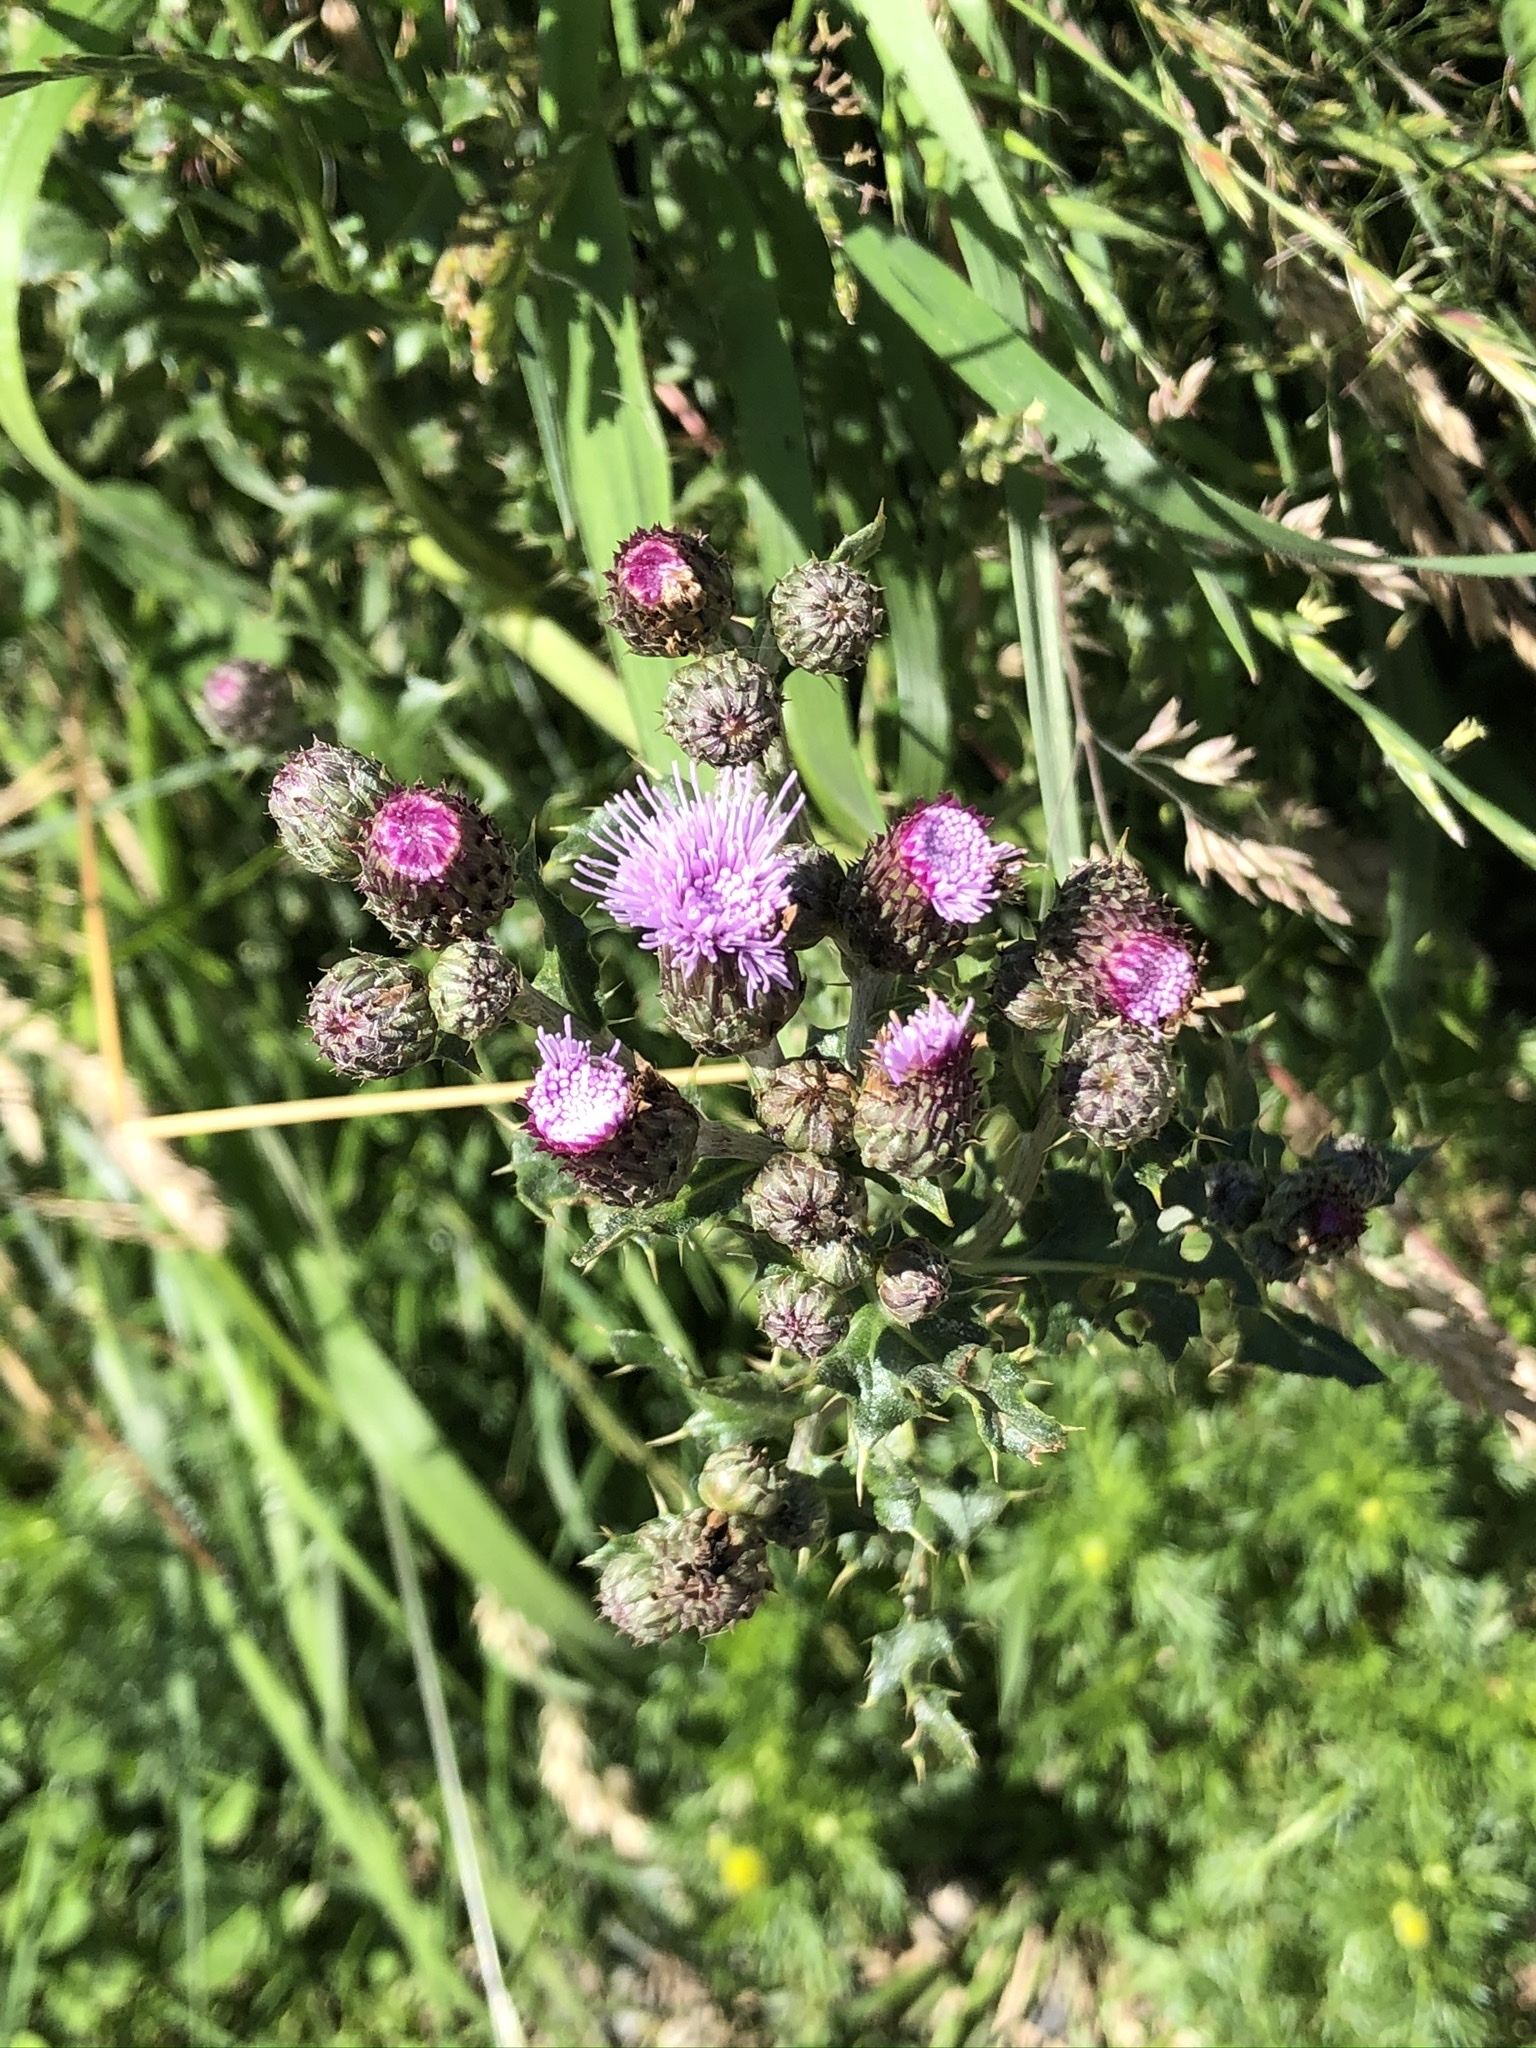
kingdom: Plantae
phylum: Tracheophyta
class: Magnoliopsida
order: Asterales
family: Asteraceae
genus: Cirsium
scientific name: Cirsium arvense
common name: Creeping thistle
